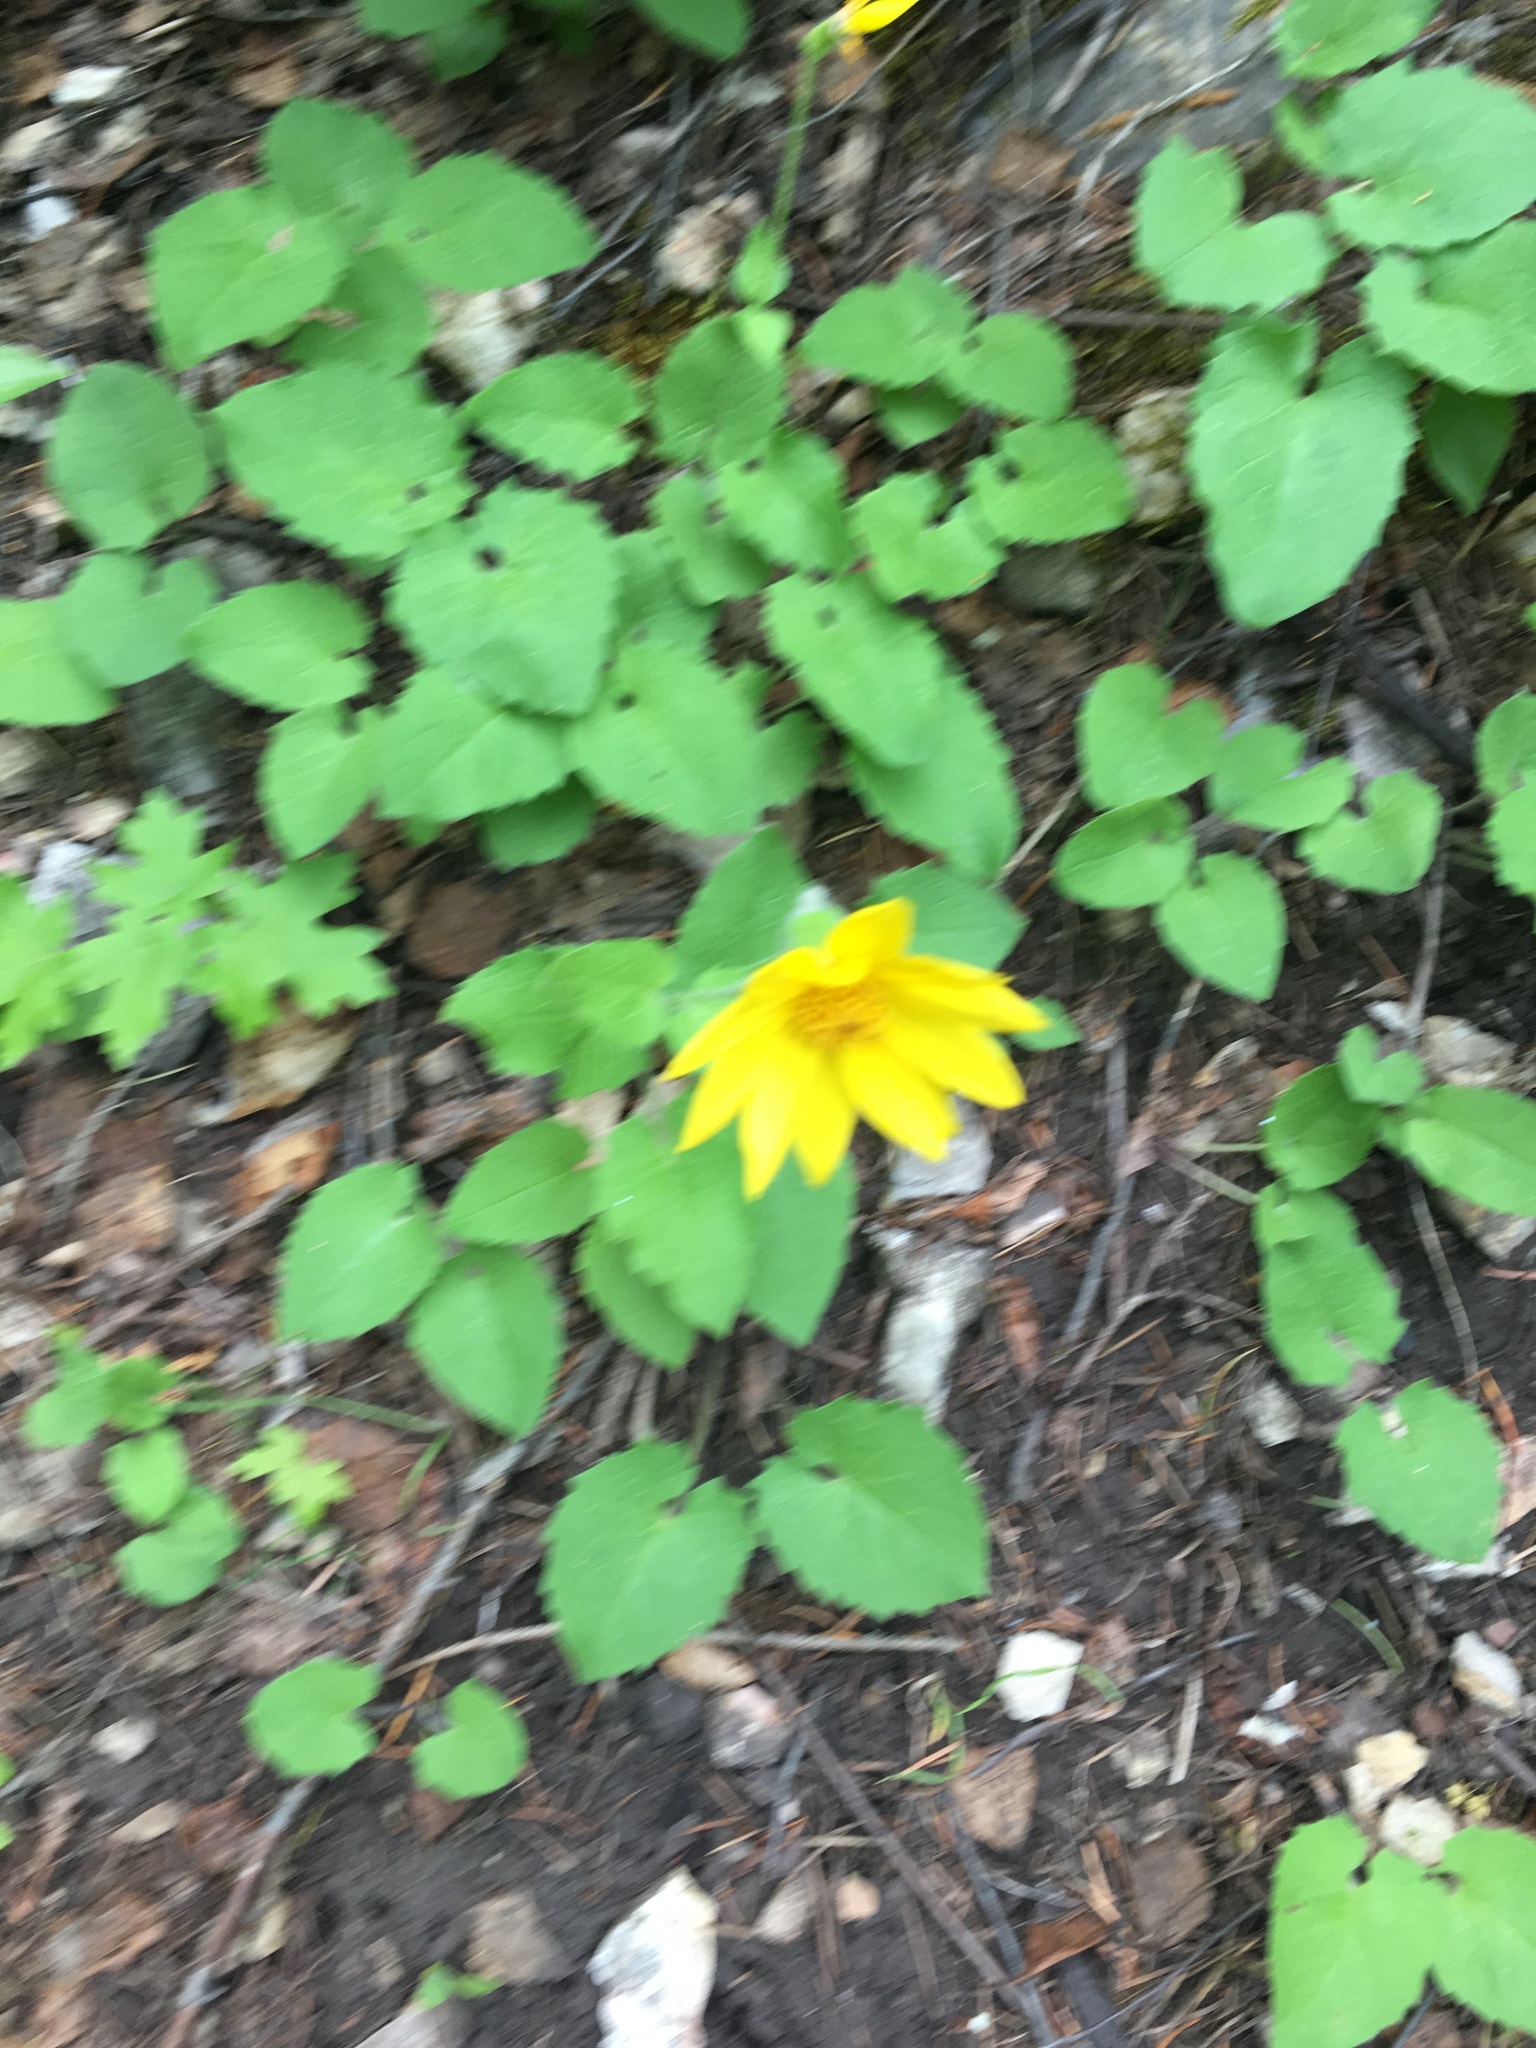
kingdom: Plantae
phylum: Tracheophyta
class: Magnoliopsida
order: Asterales
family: Asteraceae
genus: Arnica
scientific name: Arnica cordifolia
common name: Heart-leaf arnica
